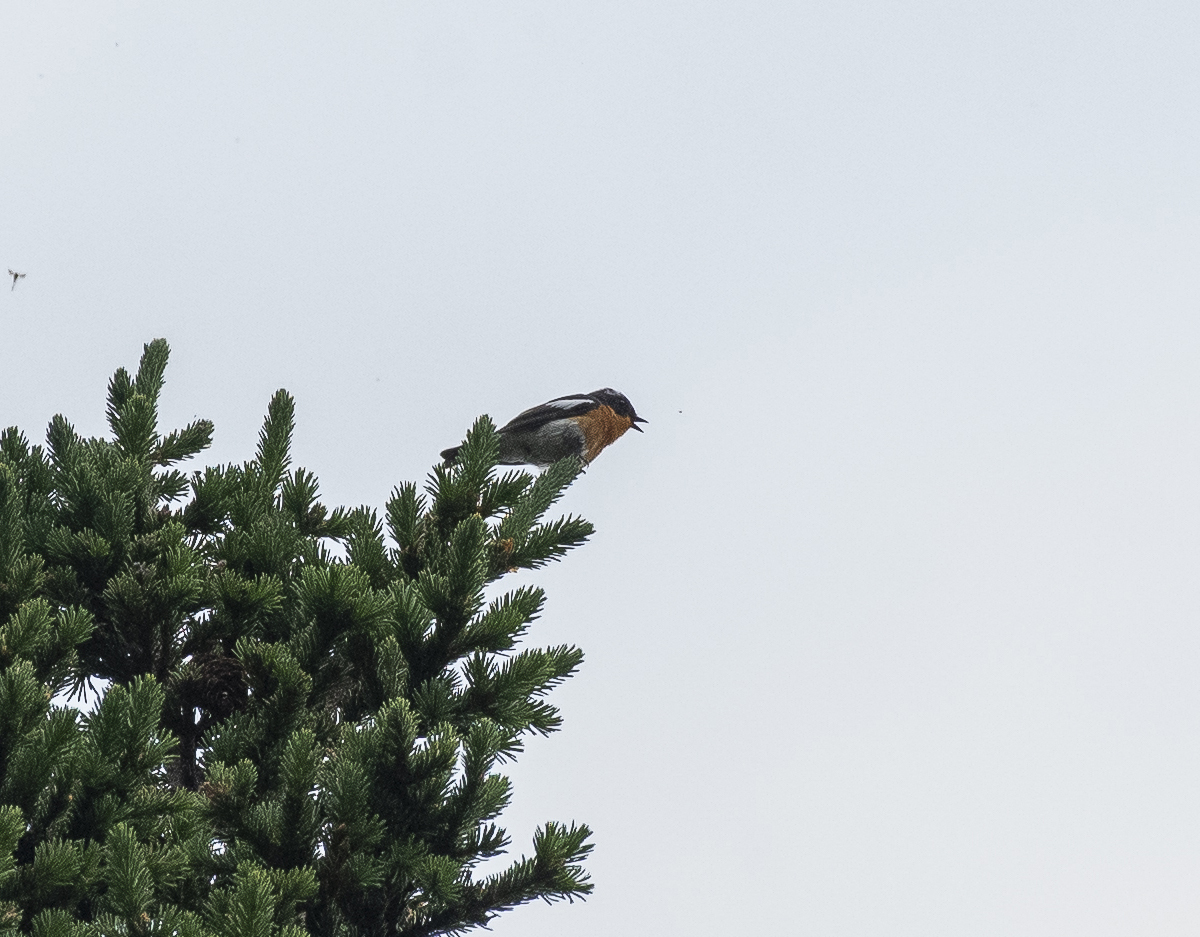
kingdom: Animalia
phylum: Chordata
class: Aves
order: Passeriformes
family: Muscicapidae
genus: Ficedula
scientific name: Ficedula mugimaki
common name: Mugimaki flycatcher
